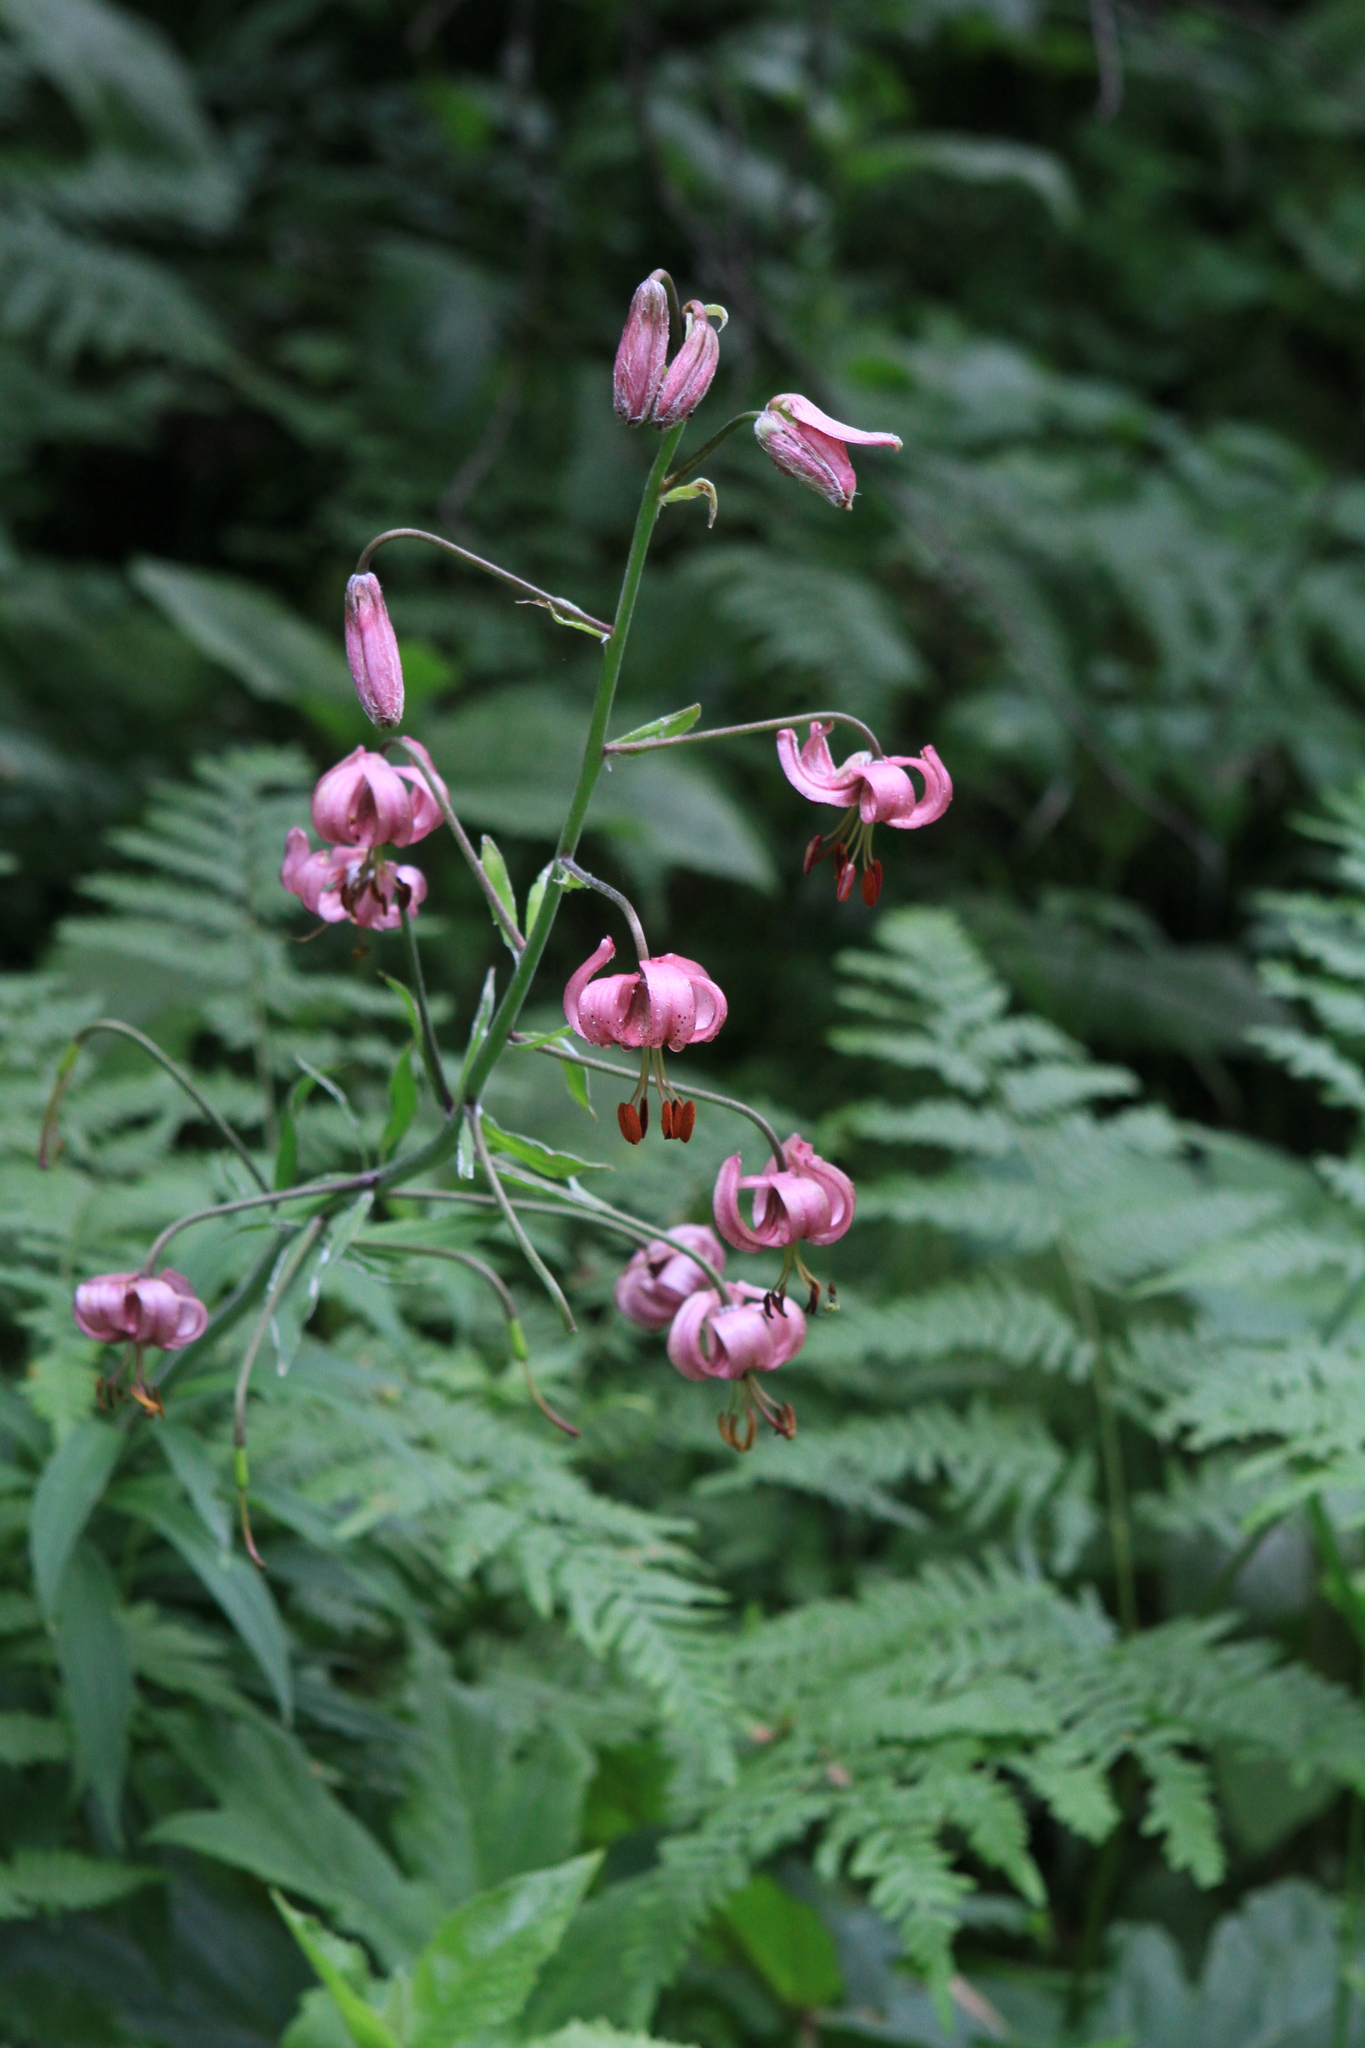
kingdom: Plantae
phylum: Tracheophyta
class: Liliopsida
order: Liliales
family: Liliaceae
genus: Lilium
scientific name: Lilium martagon
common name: Martagon lily
